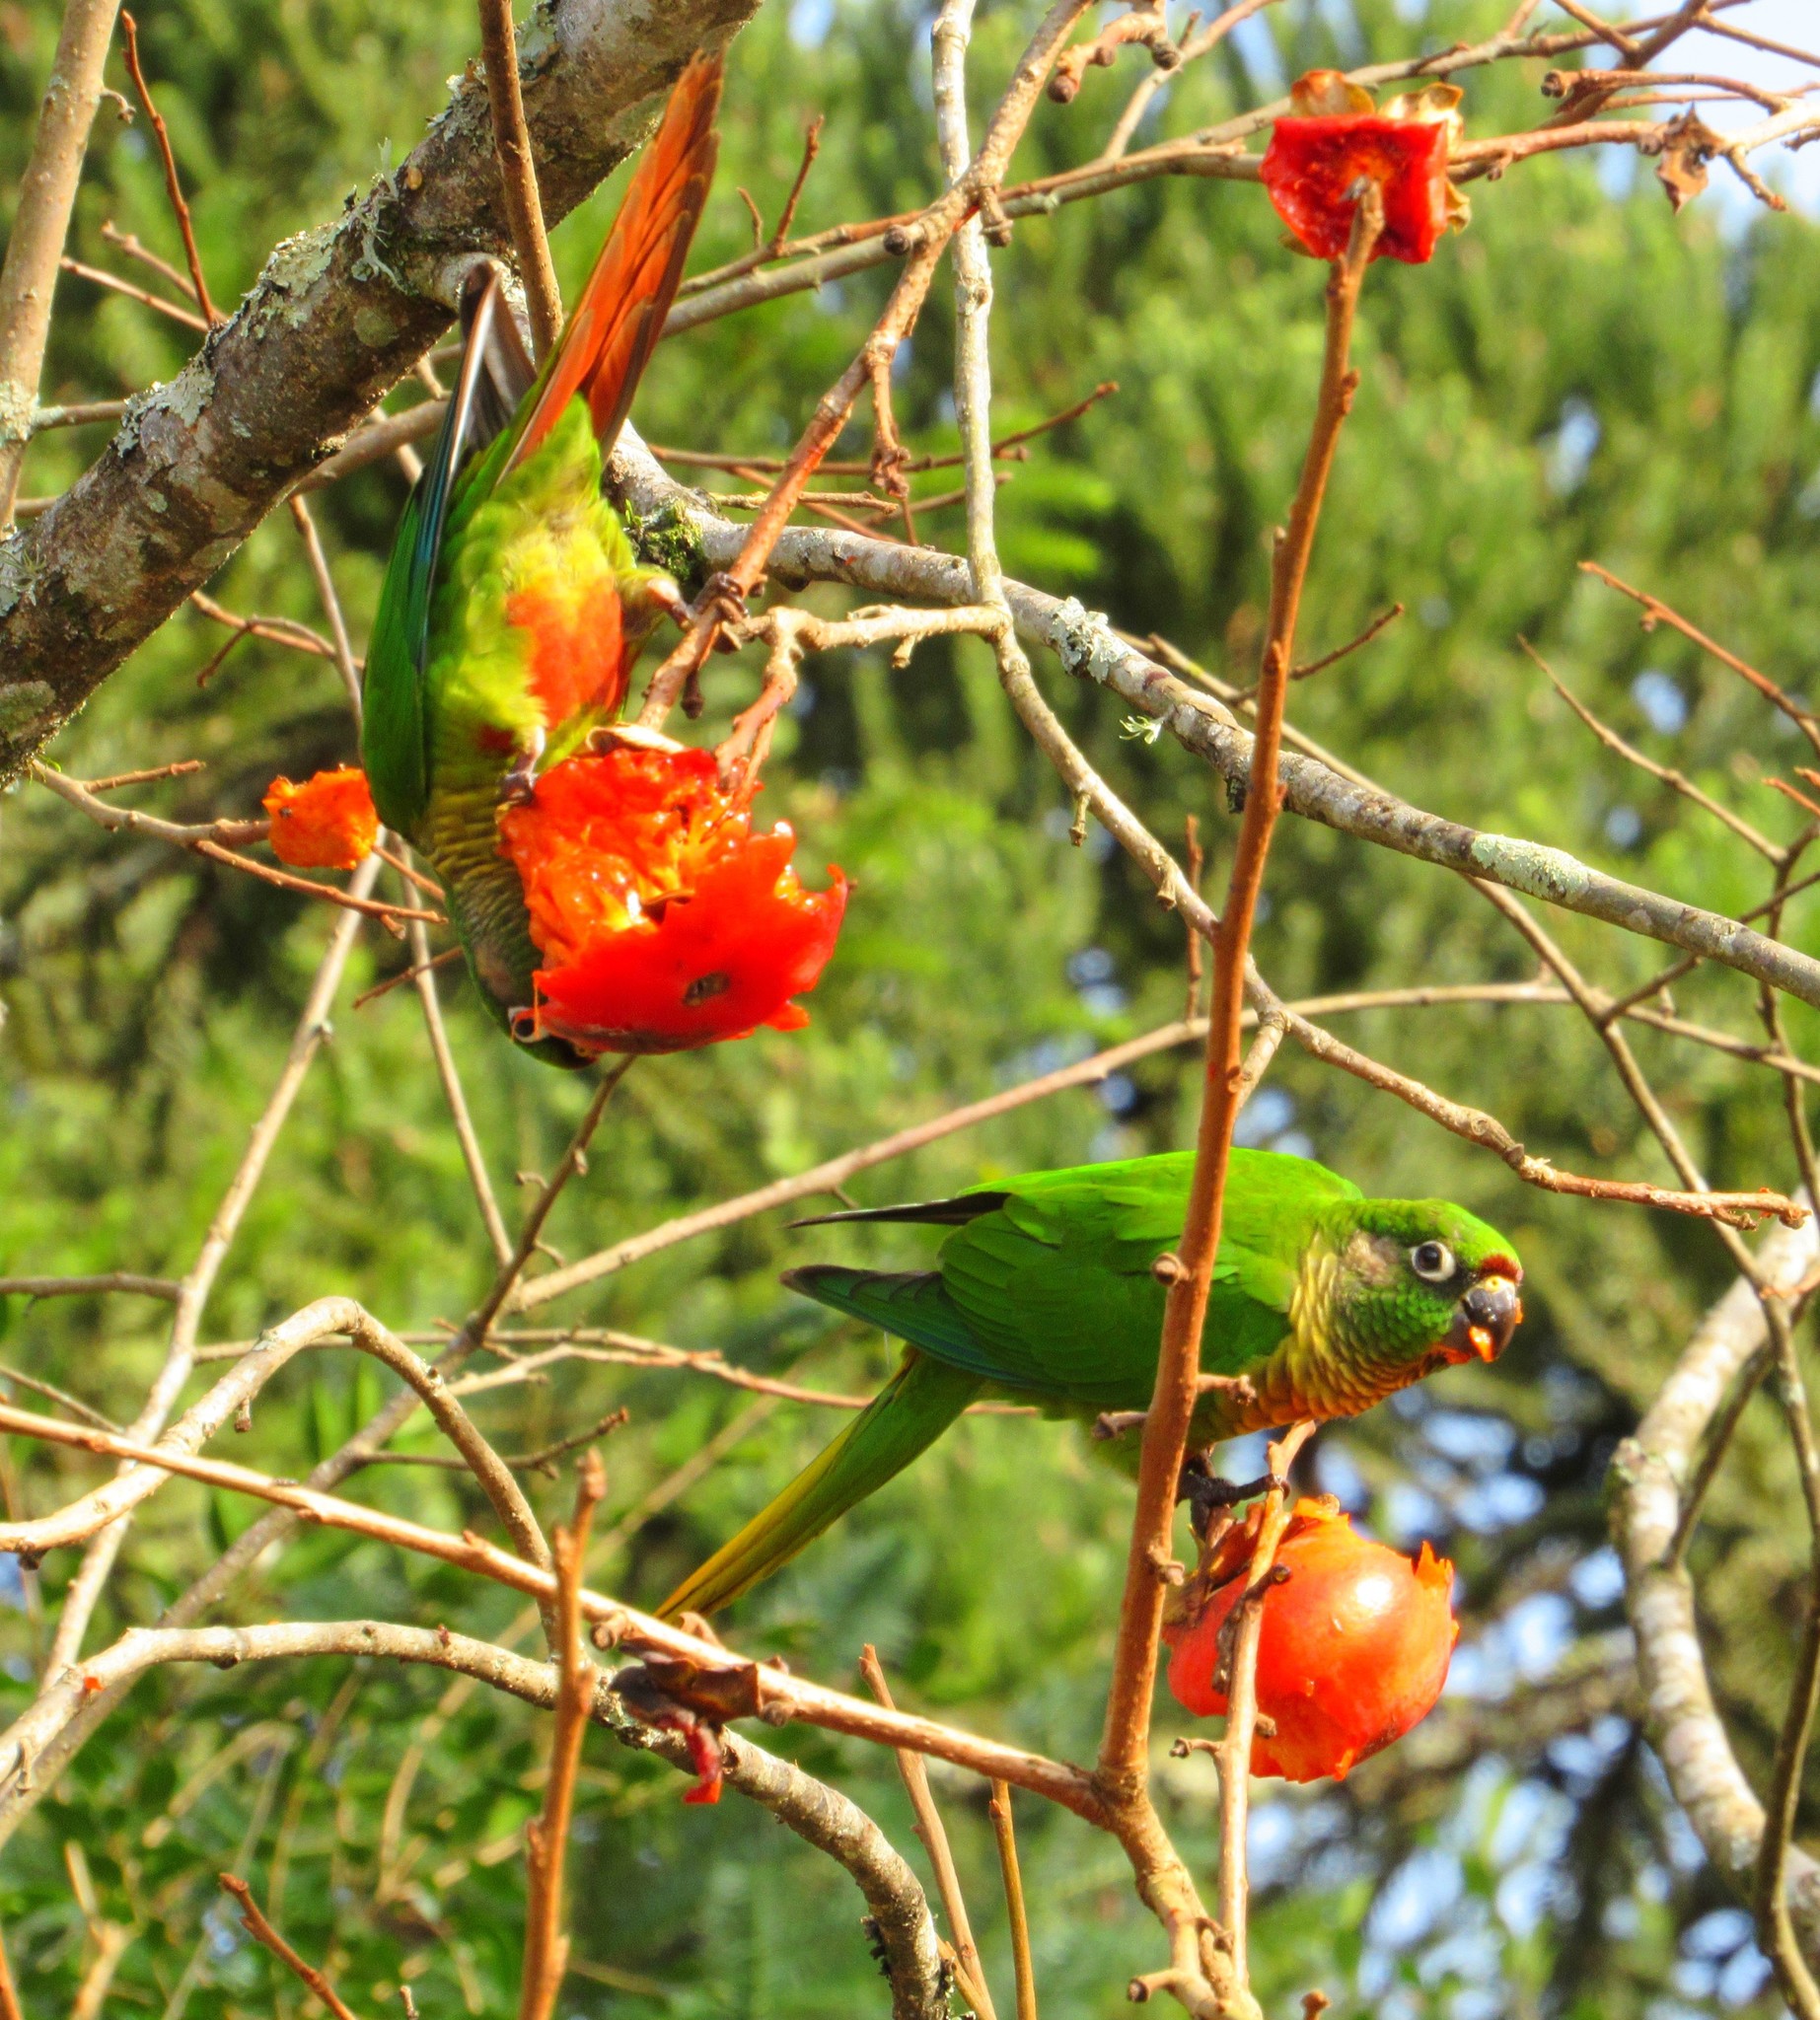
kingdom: Animalia
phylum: Chordata
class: Aves
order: Psittaciformes
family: Psittacidae
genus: Pyrrhura
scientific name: Pyrrhura frontalis
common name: Maroon-bellied parakeet
